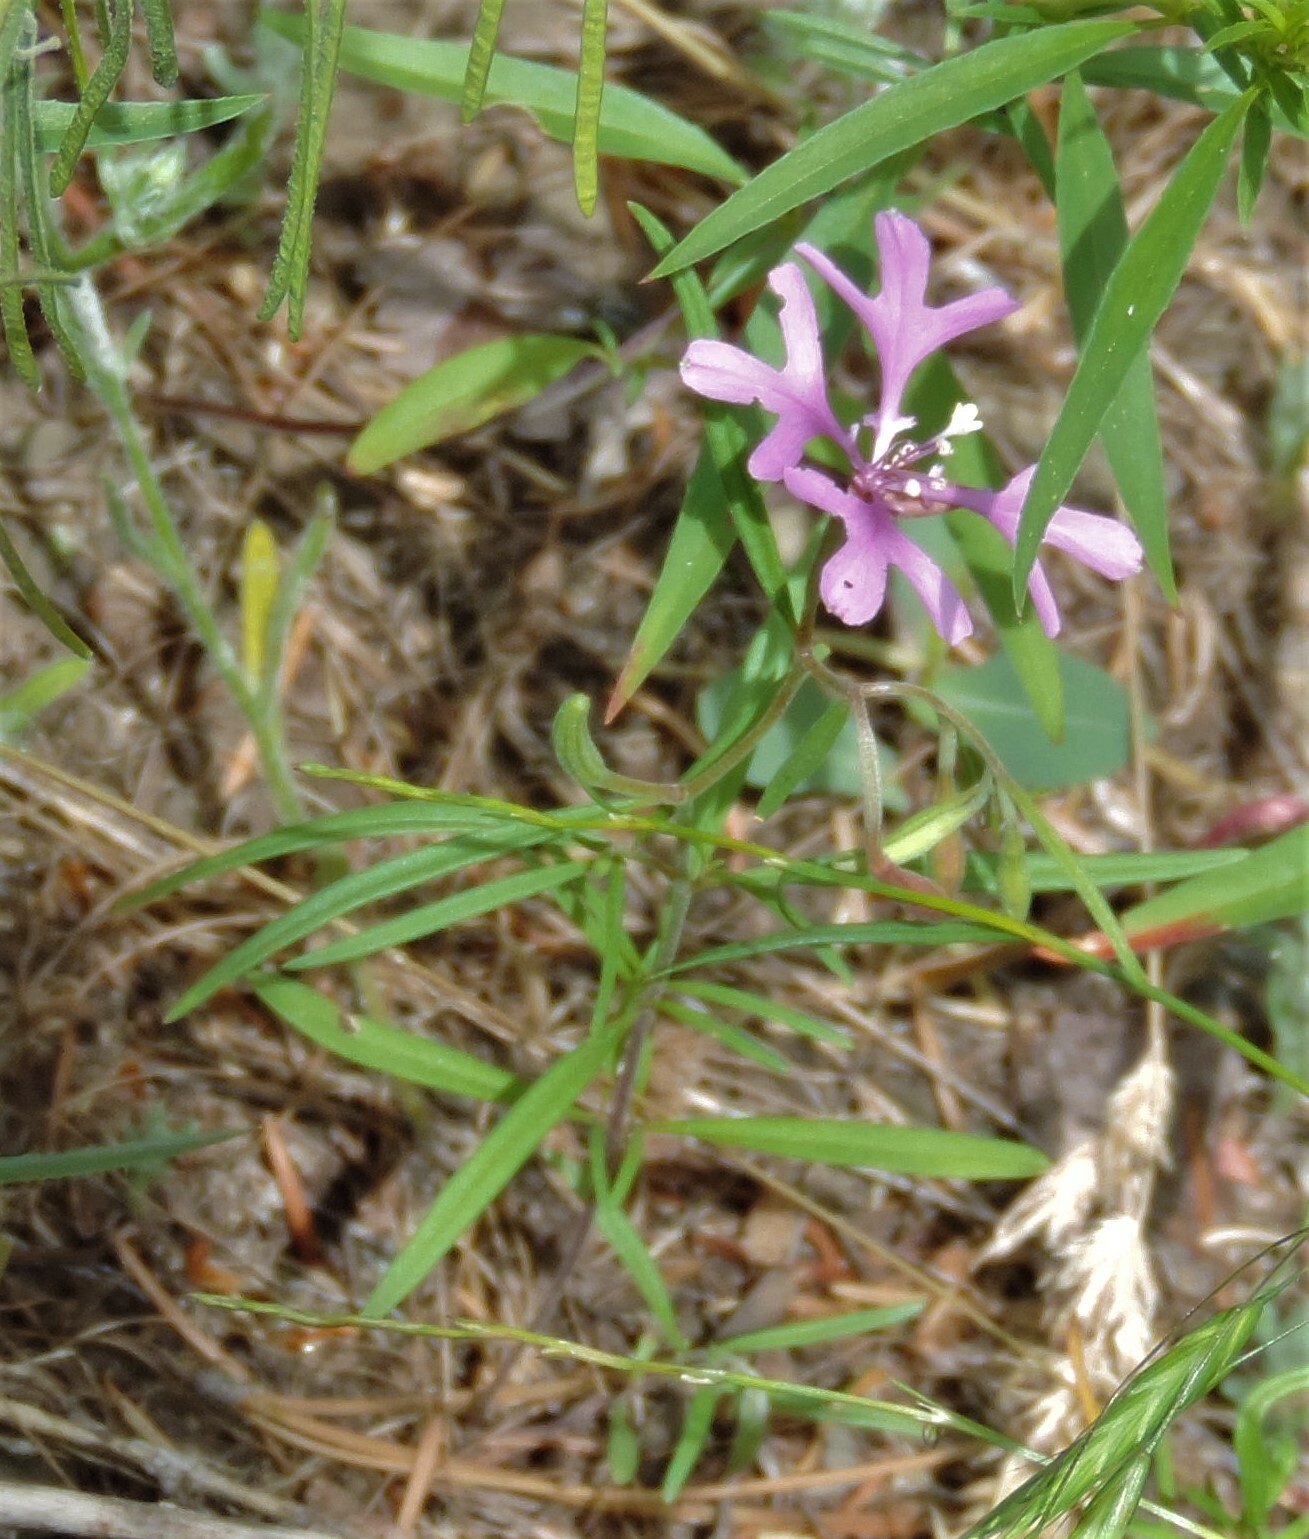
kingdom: Plantae
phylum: Tracheophyta
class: Magnoliopsida
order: Myrtales
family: Onagraceae
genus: Clarkia
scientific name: Clarkia pulchella
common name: Deer horn
